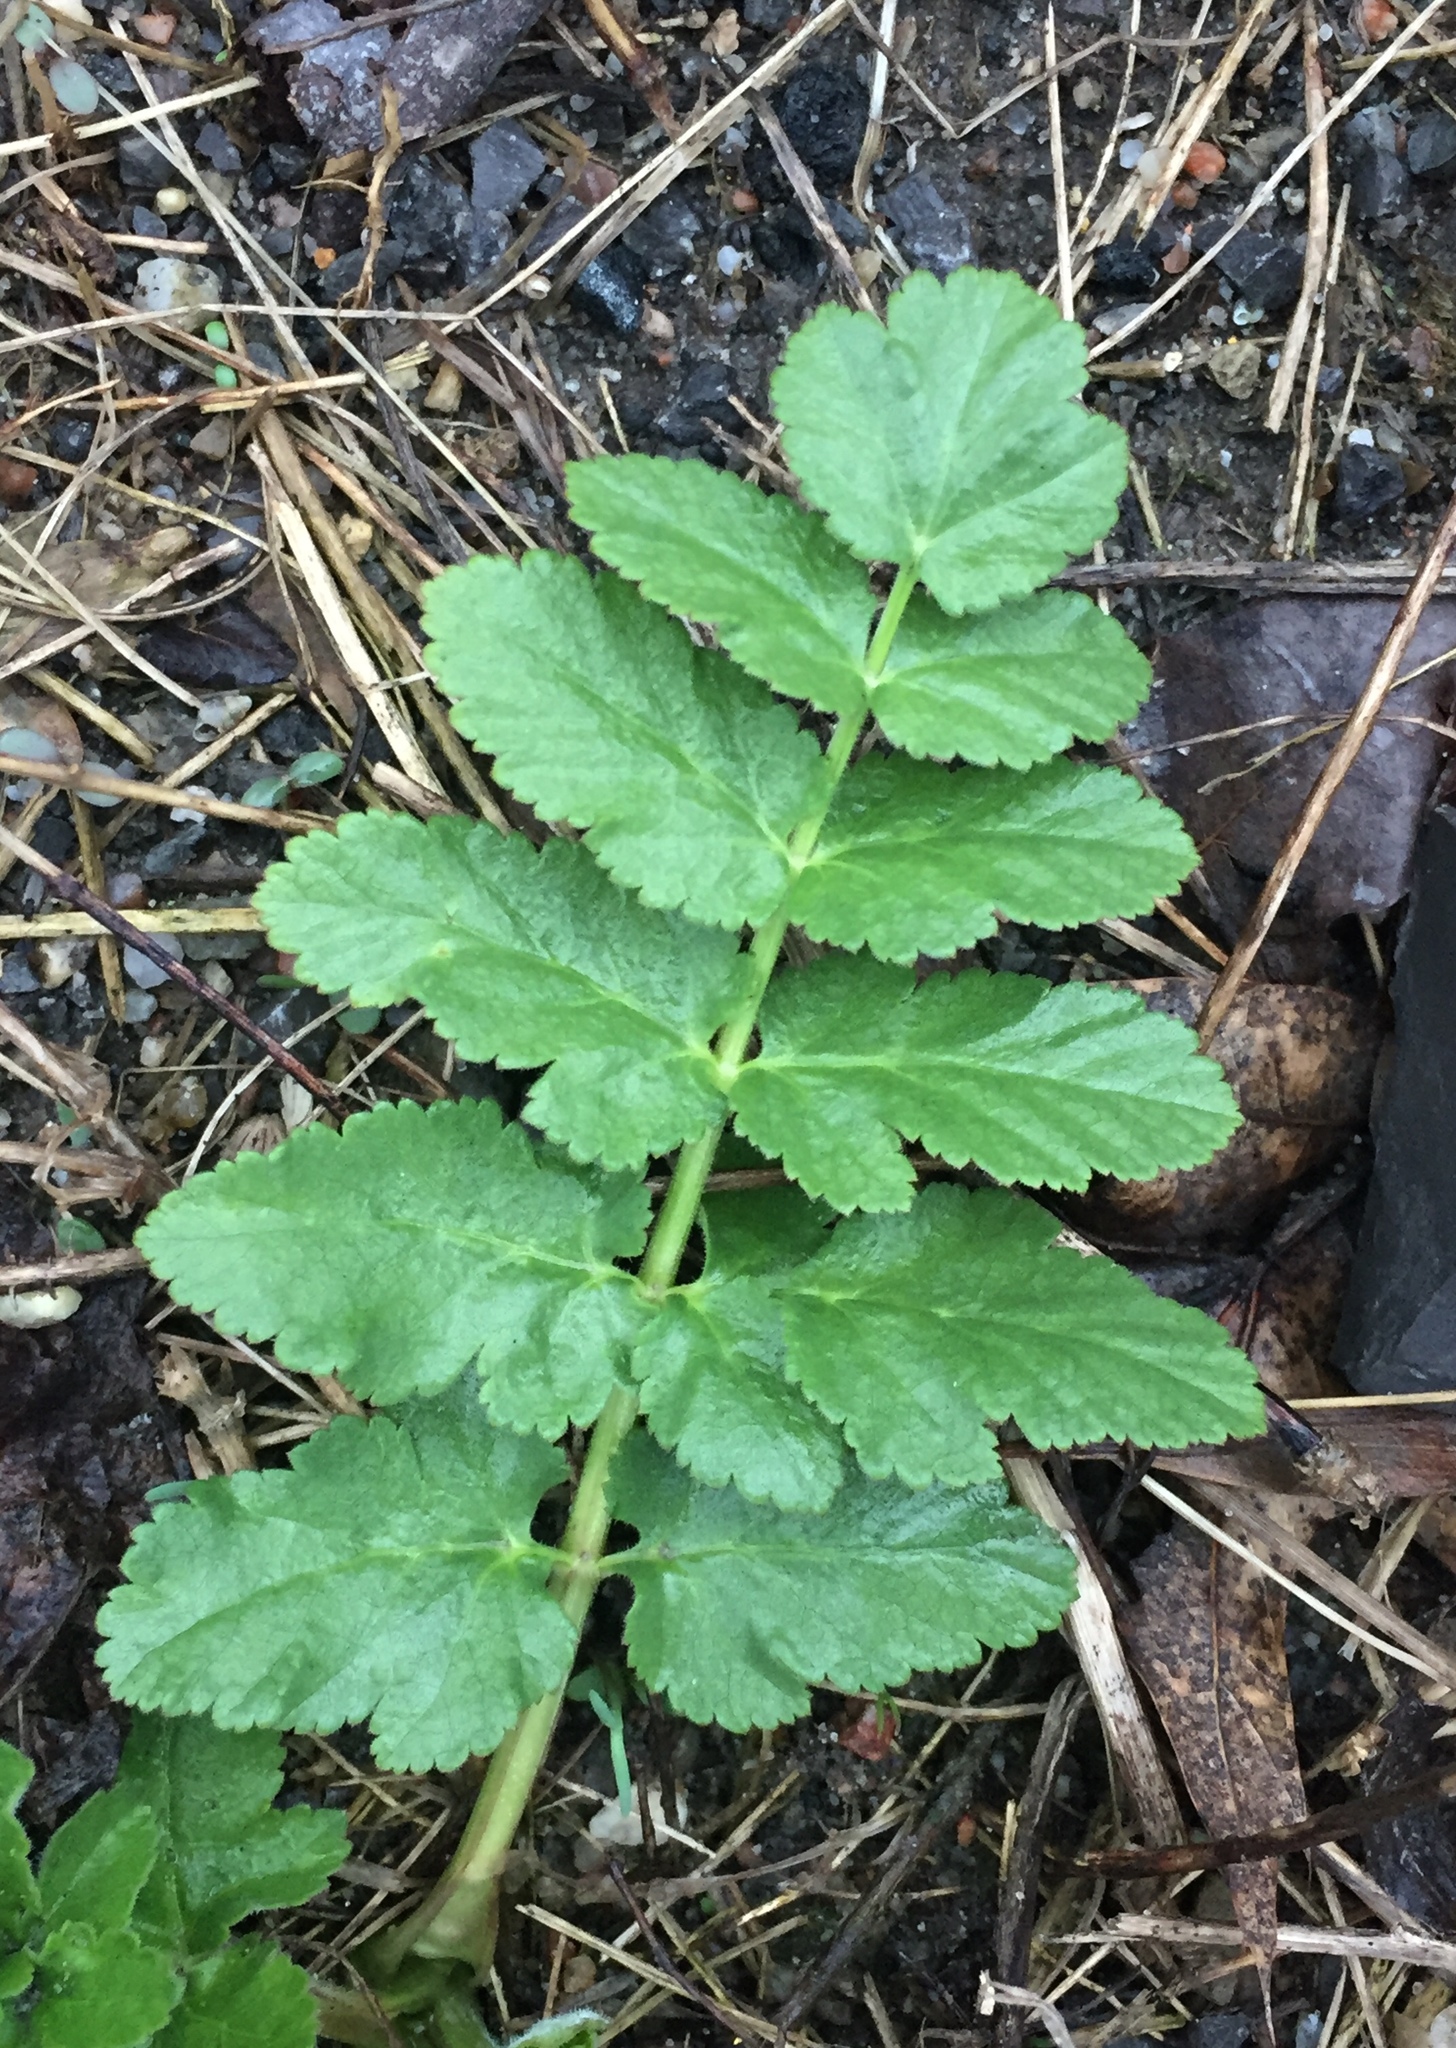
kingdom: Plantae
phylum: Tracheophyta
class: Magnoliopsida
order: Apiales
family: Apiaceae
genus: Pastinaca
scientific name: Pastinaca sativa
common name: Wild parsnip
